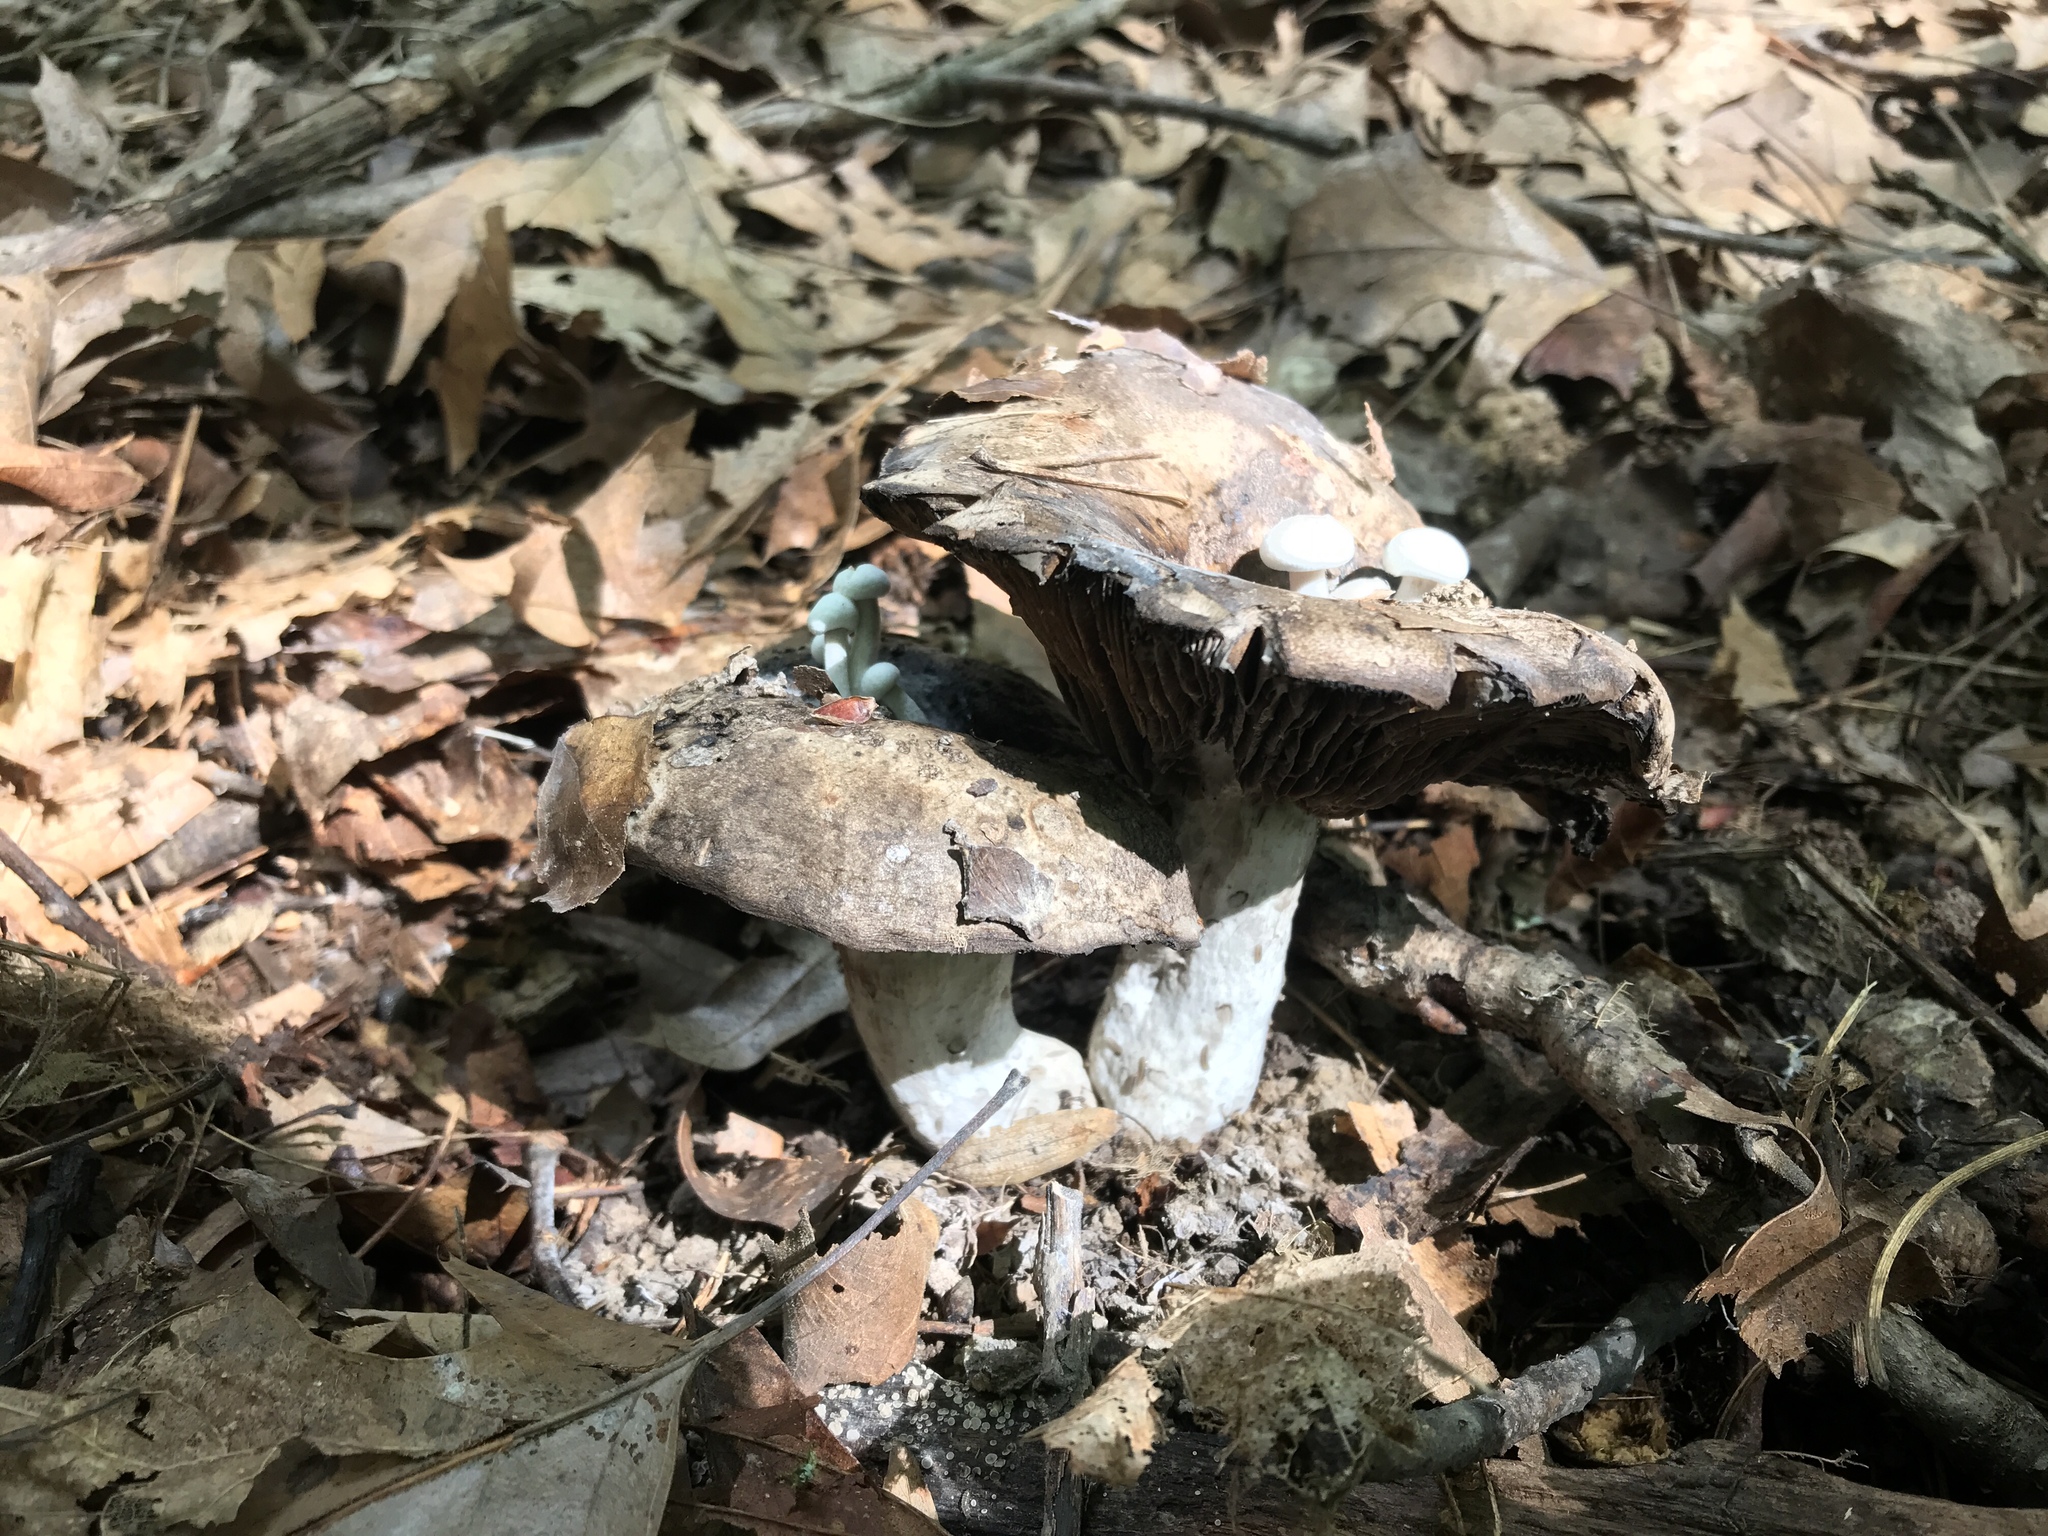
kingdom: Fungi
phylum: Basidiomycota
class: Agaricomycetes
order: Agaricales
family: Lyophyllaceae
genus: Asterophora
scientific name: Asterophora lycoperdoides
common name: Pick-a-back toadstool
